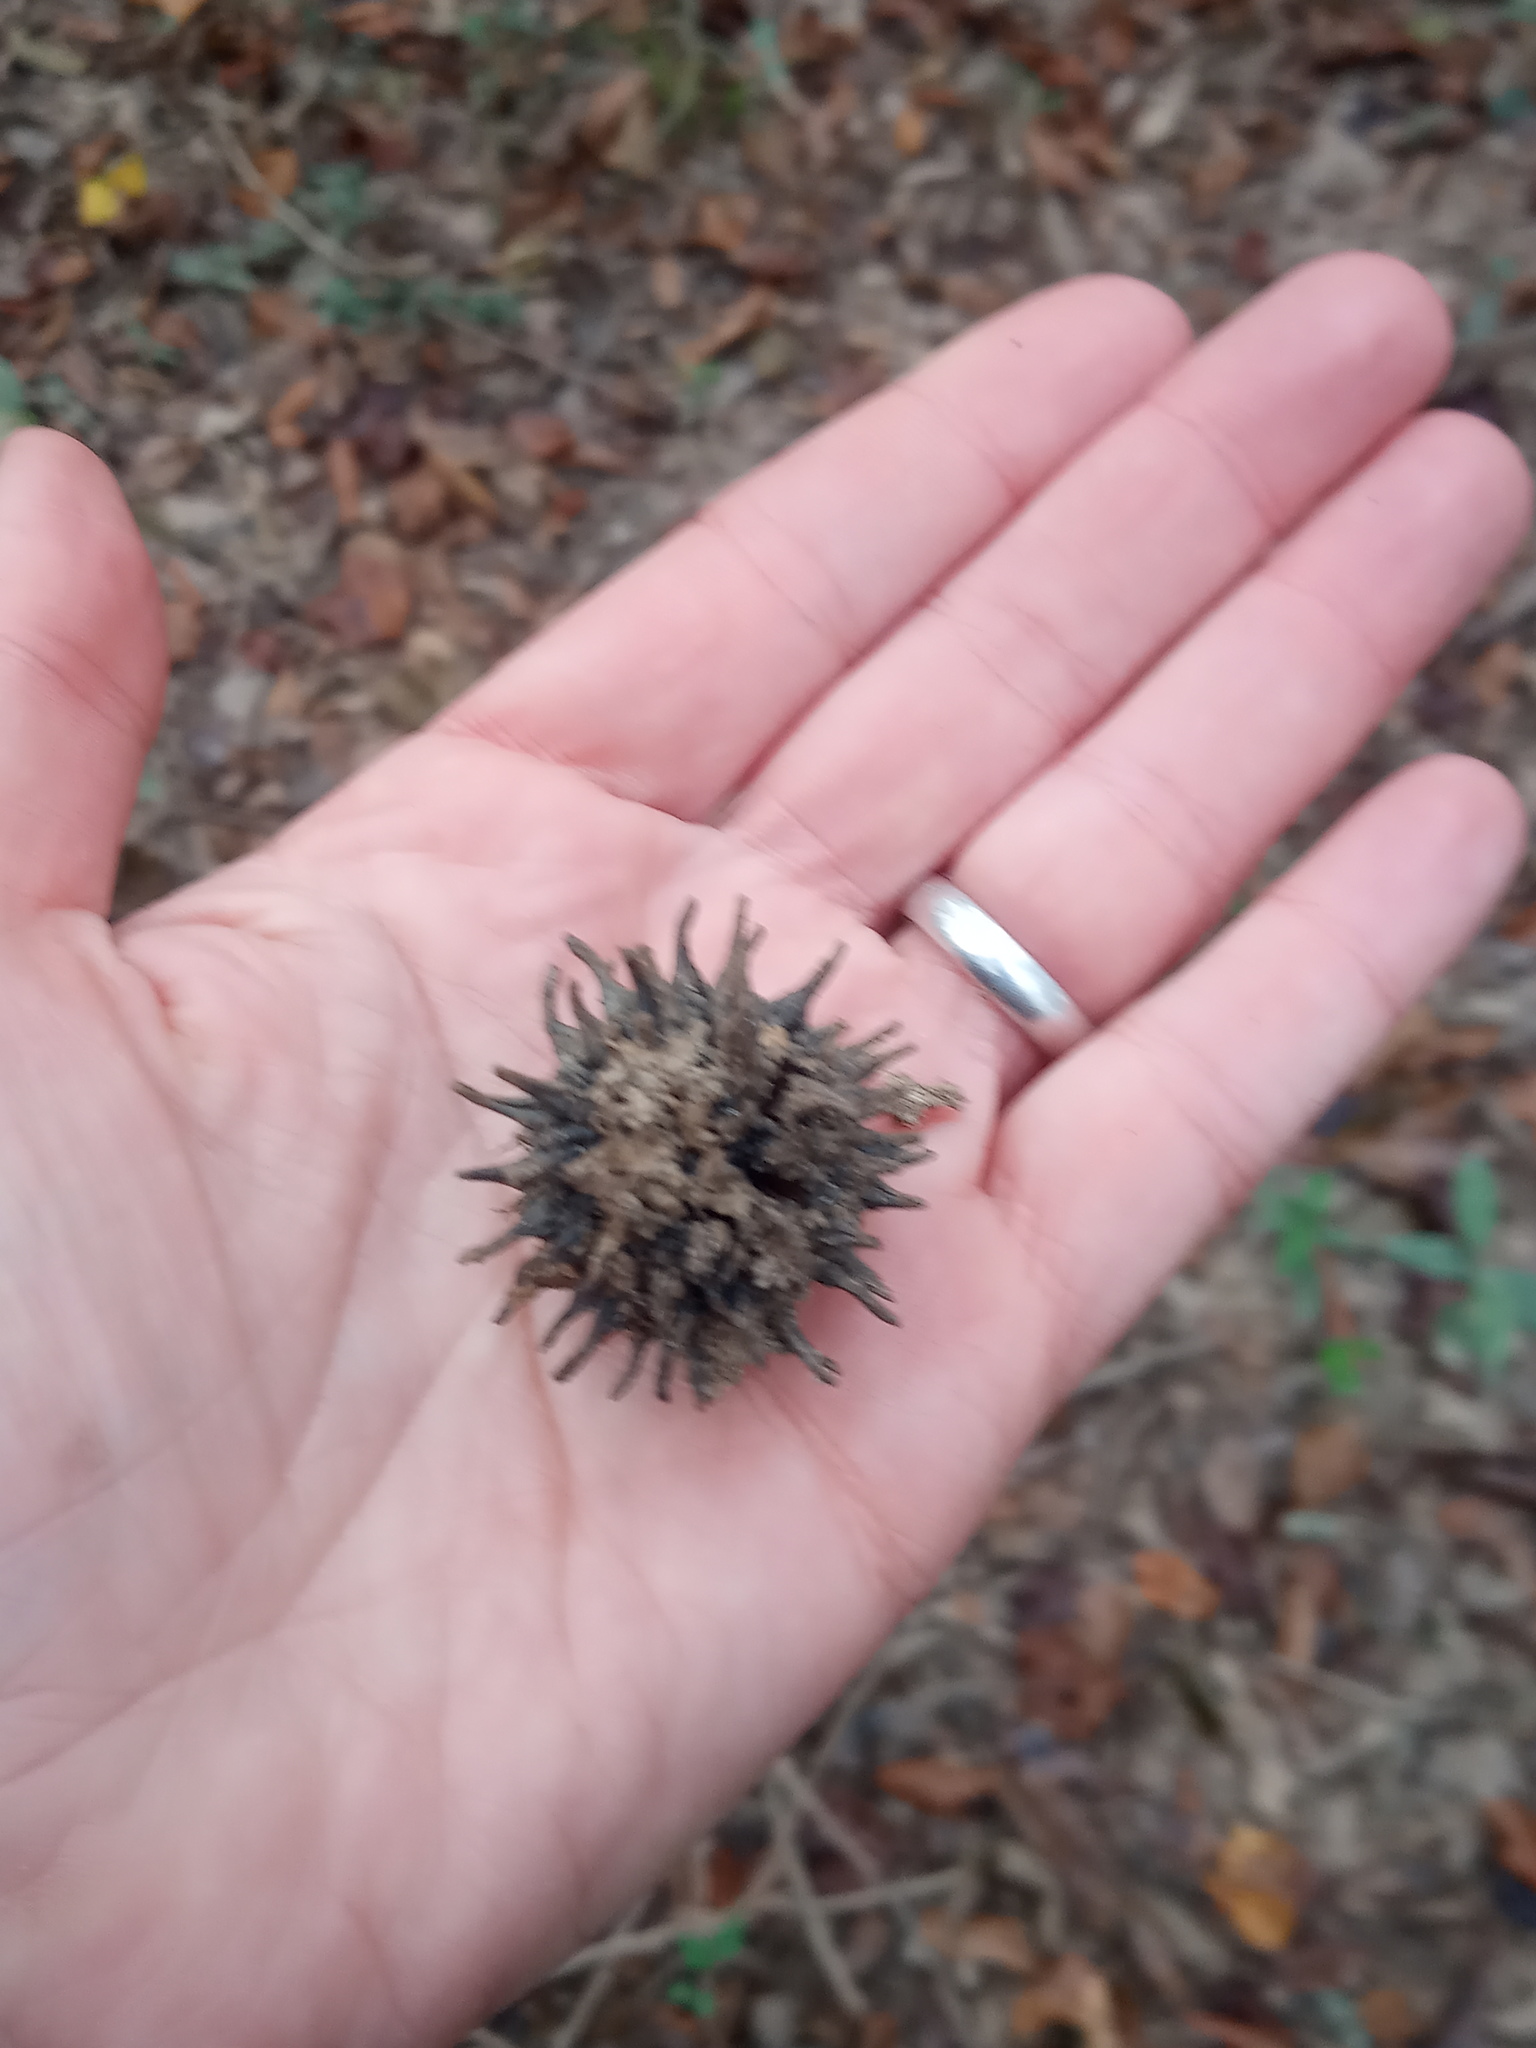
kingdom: Plantae
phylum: Tracheophyta
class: Magnoliopsida
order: Saxifragales
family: Altingiaceae
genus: Liquidambar
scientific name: Liquidambar styraciflua
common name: Sweet gum
